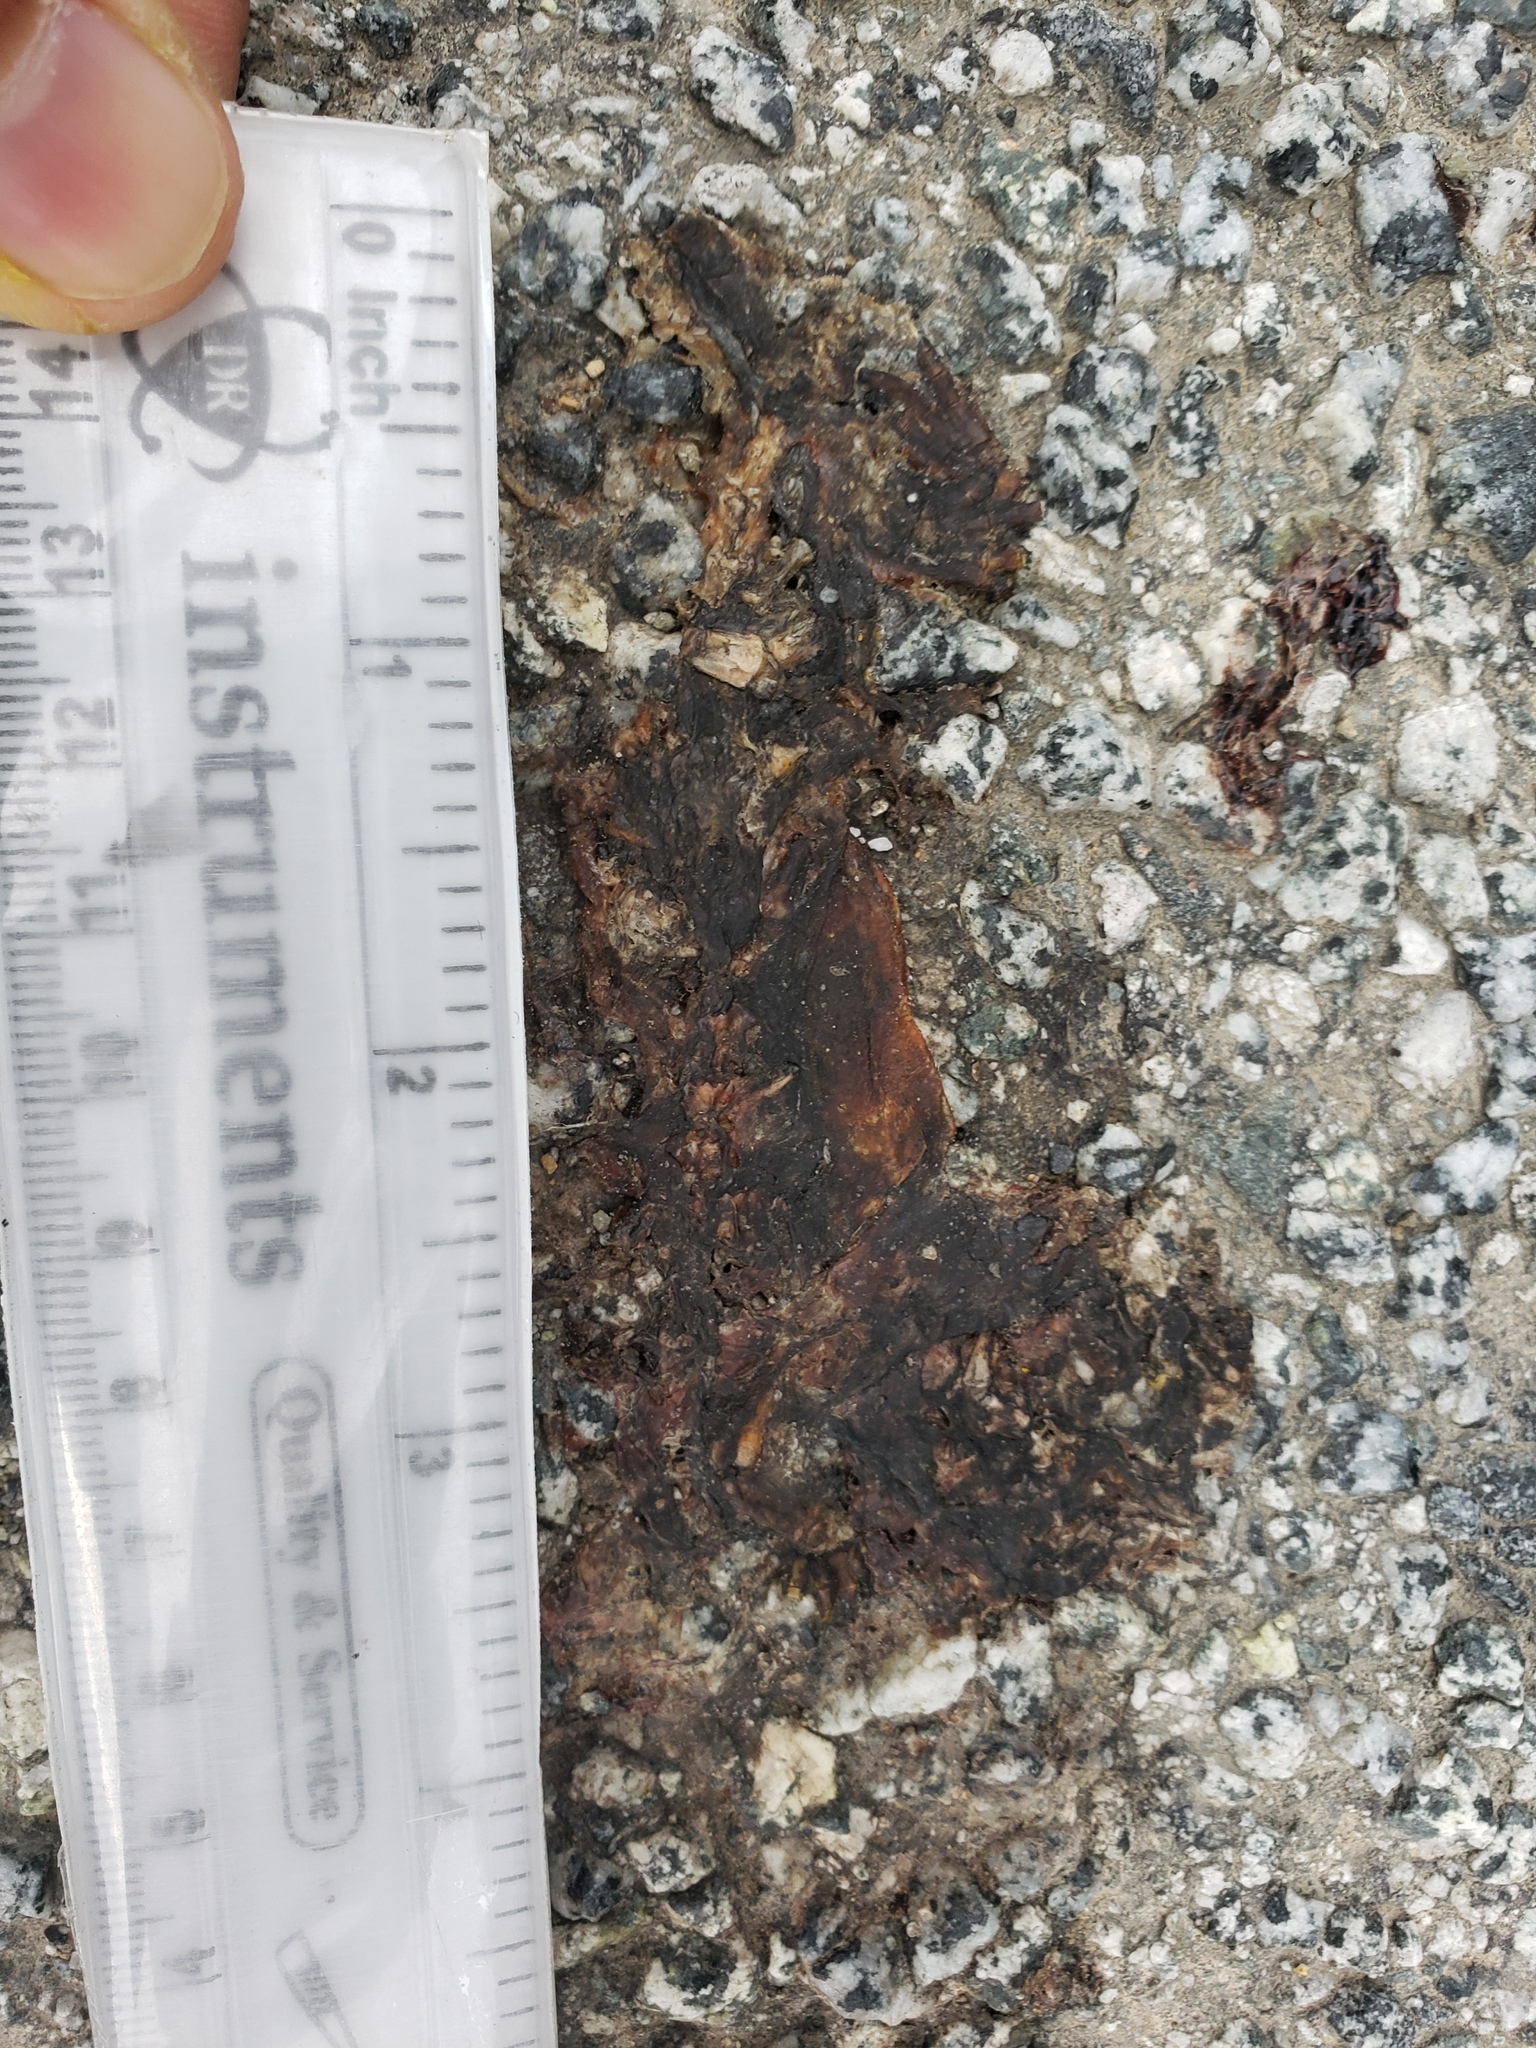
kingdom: Animalia
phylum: Chordata
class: Amphibia
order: Caudata
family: Salamandridae
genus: Taricha
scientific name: Taricha
